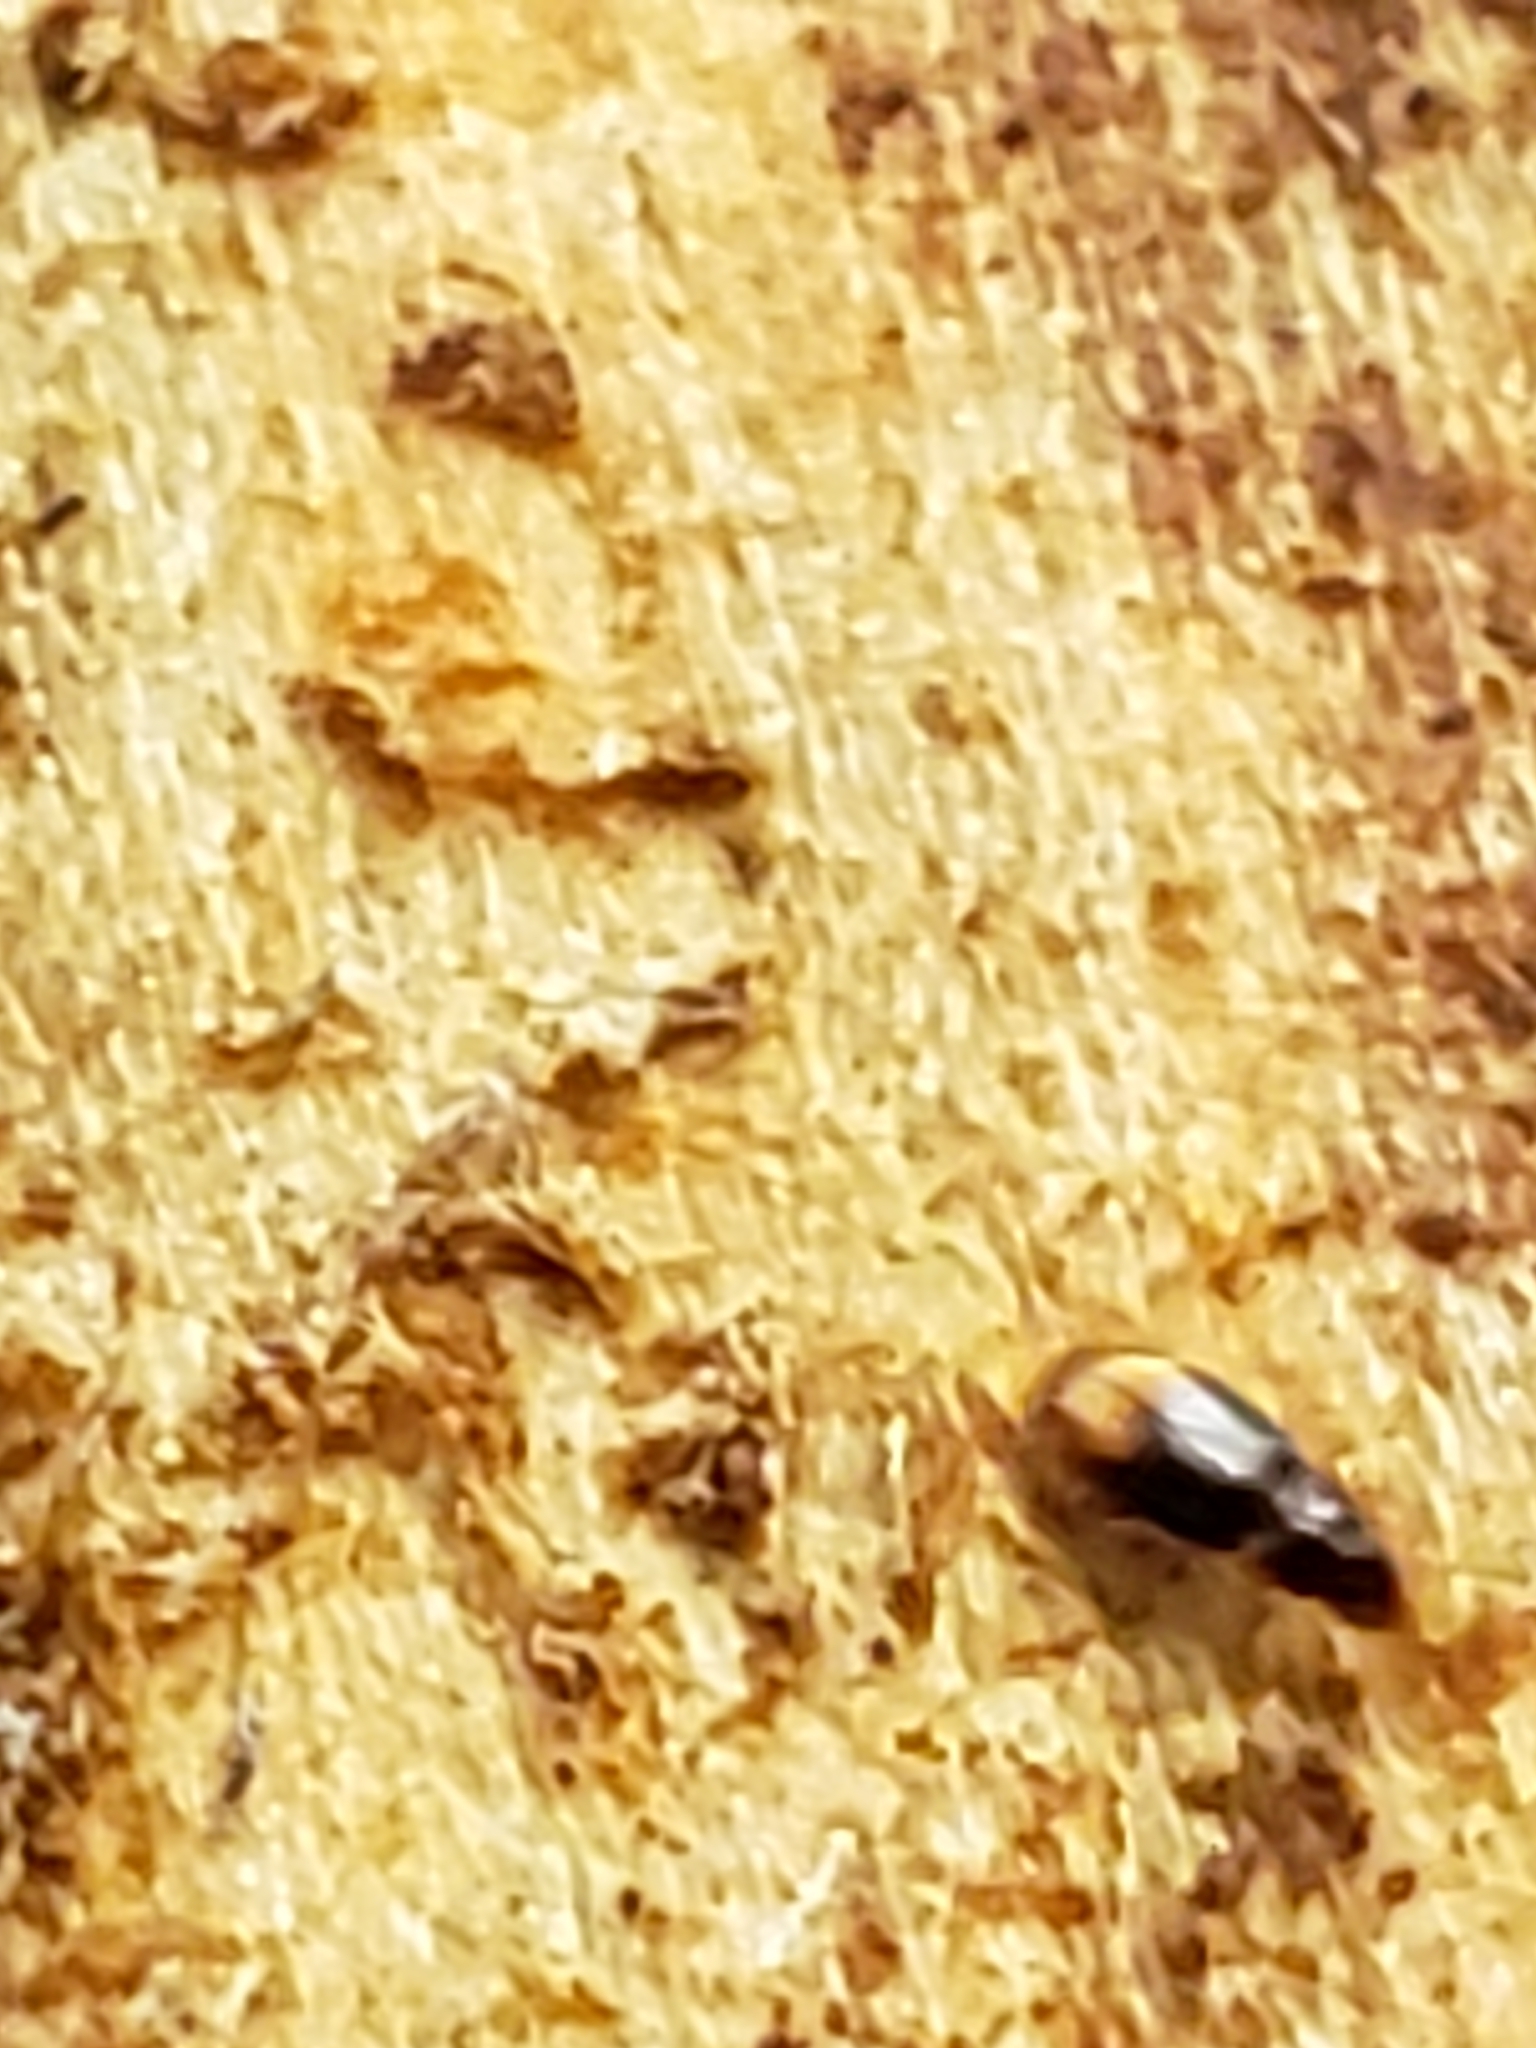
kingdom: Animalia
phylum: Arthropoda
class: Insecta
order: Coleoptera
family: Carabidae
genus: Mioptachys
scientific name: Mioptachys flavicauda
